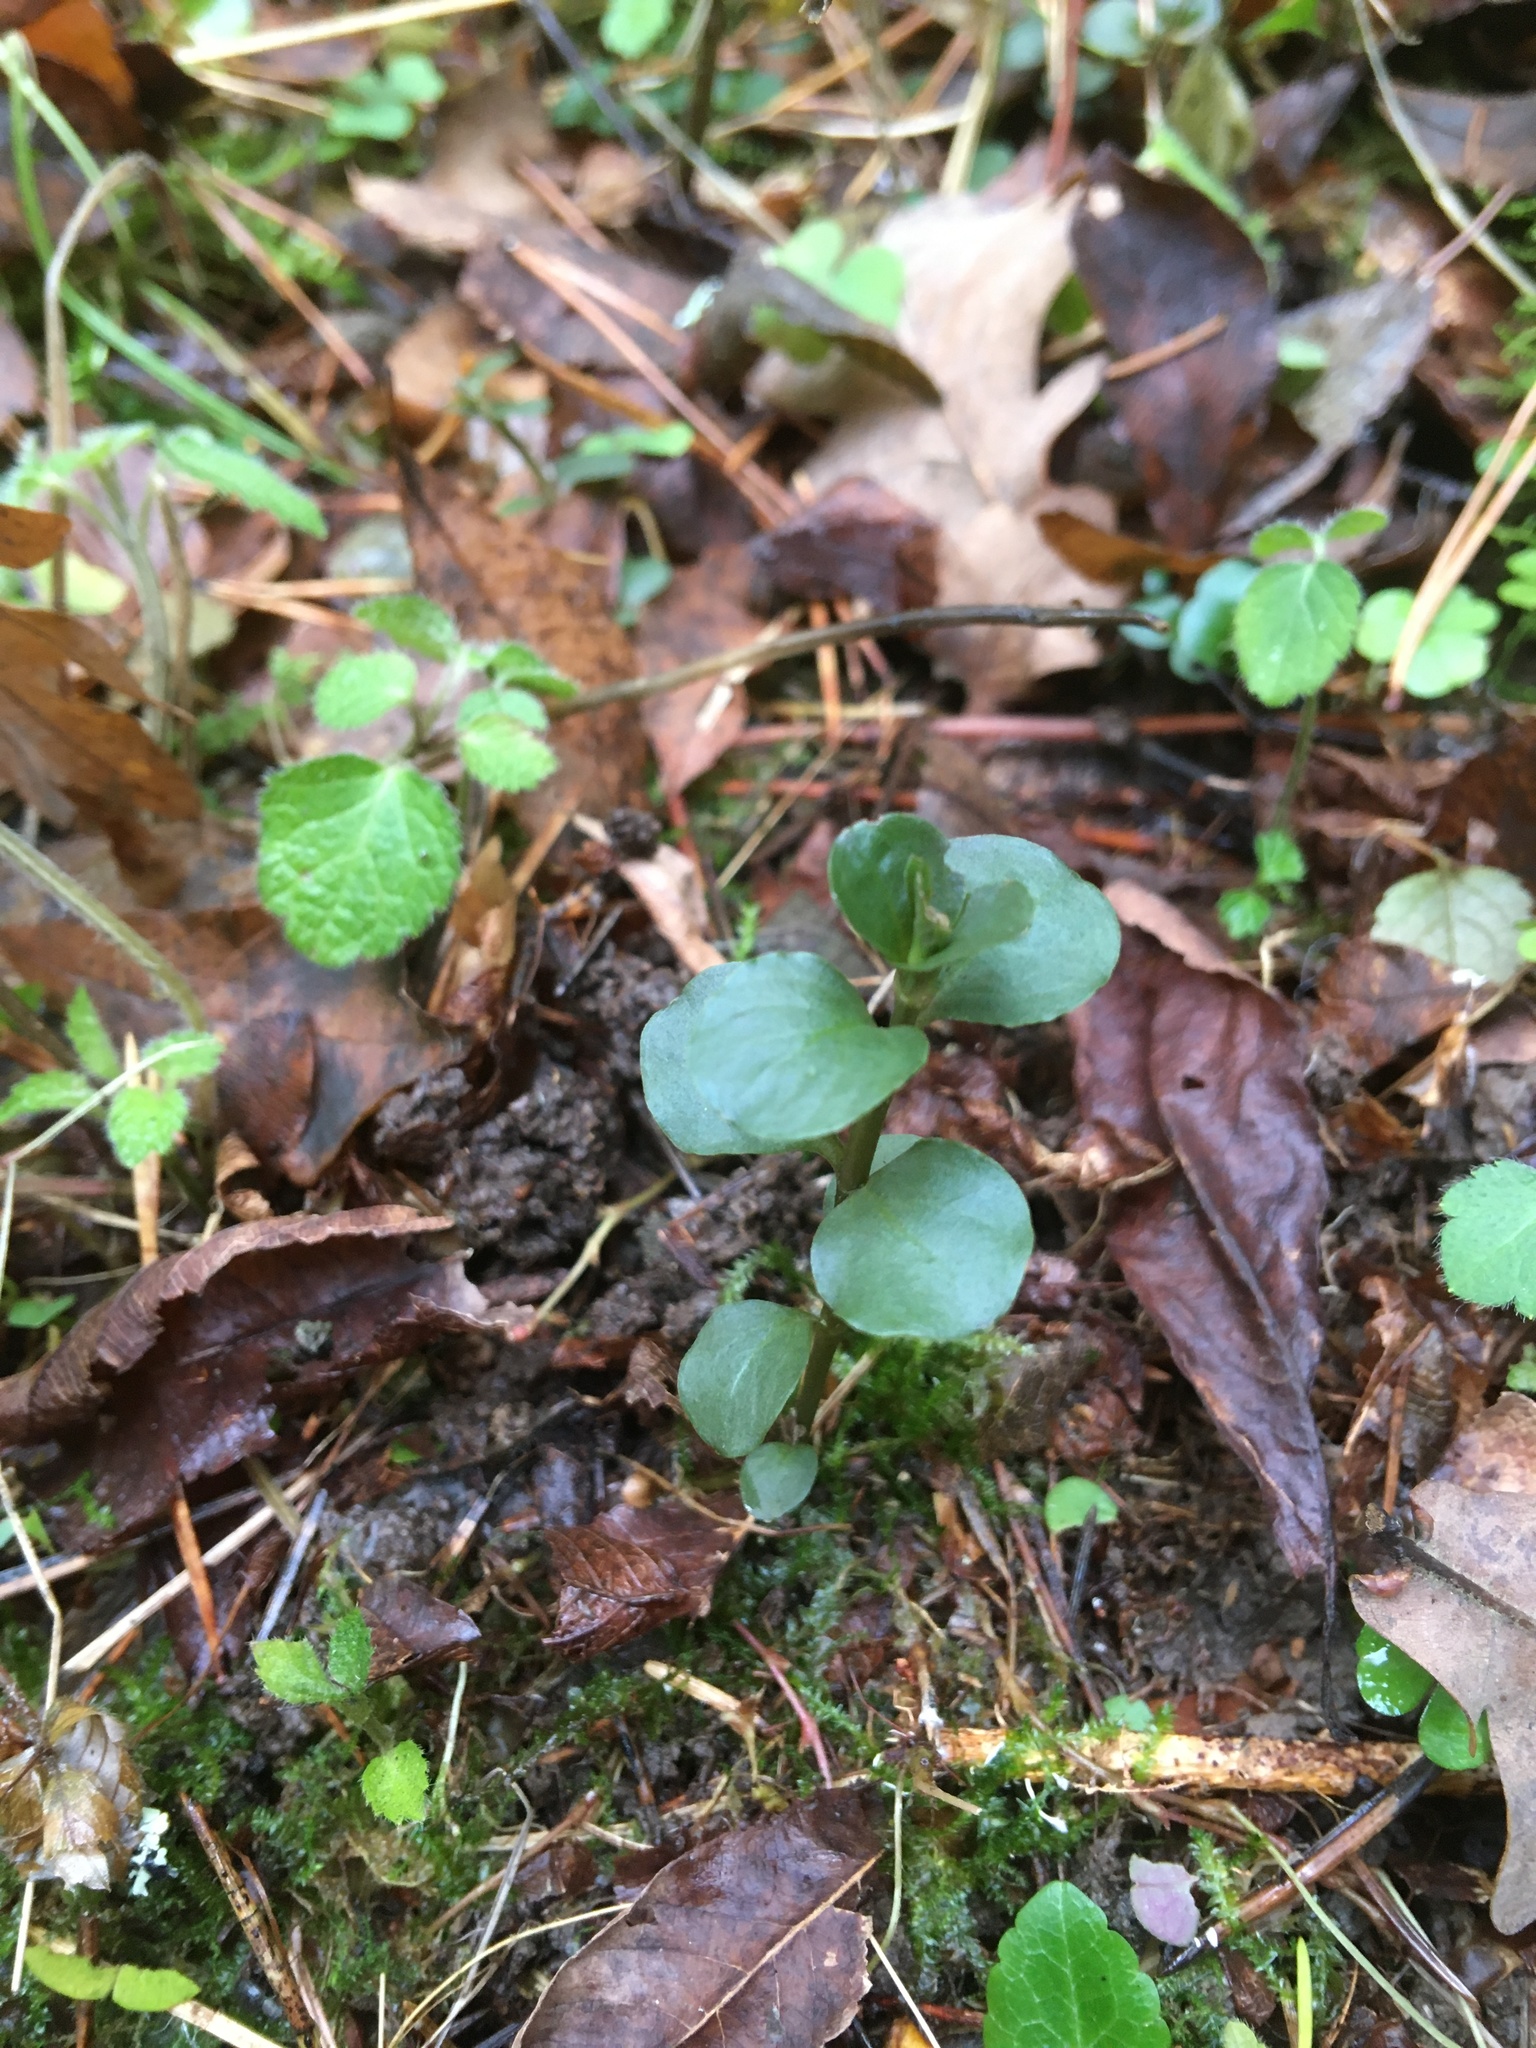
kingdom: Plantae
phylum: Tracheophyta
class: Magnoliopsida
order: Ericales
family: Primulaceae
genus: Lysimachia
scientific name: Lysimachia nummularia
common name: Moneywort
